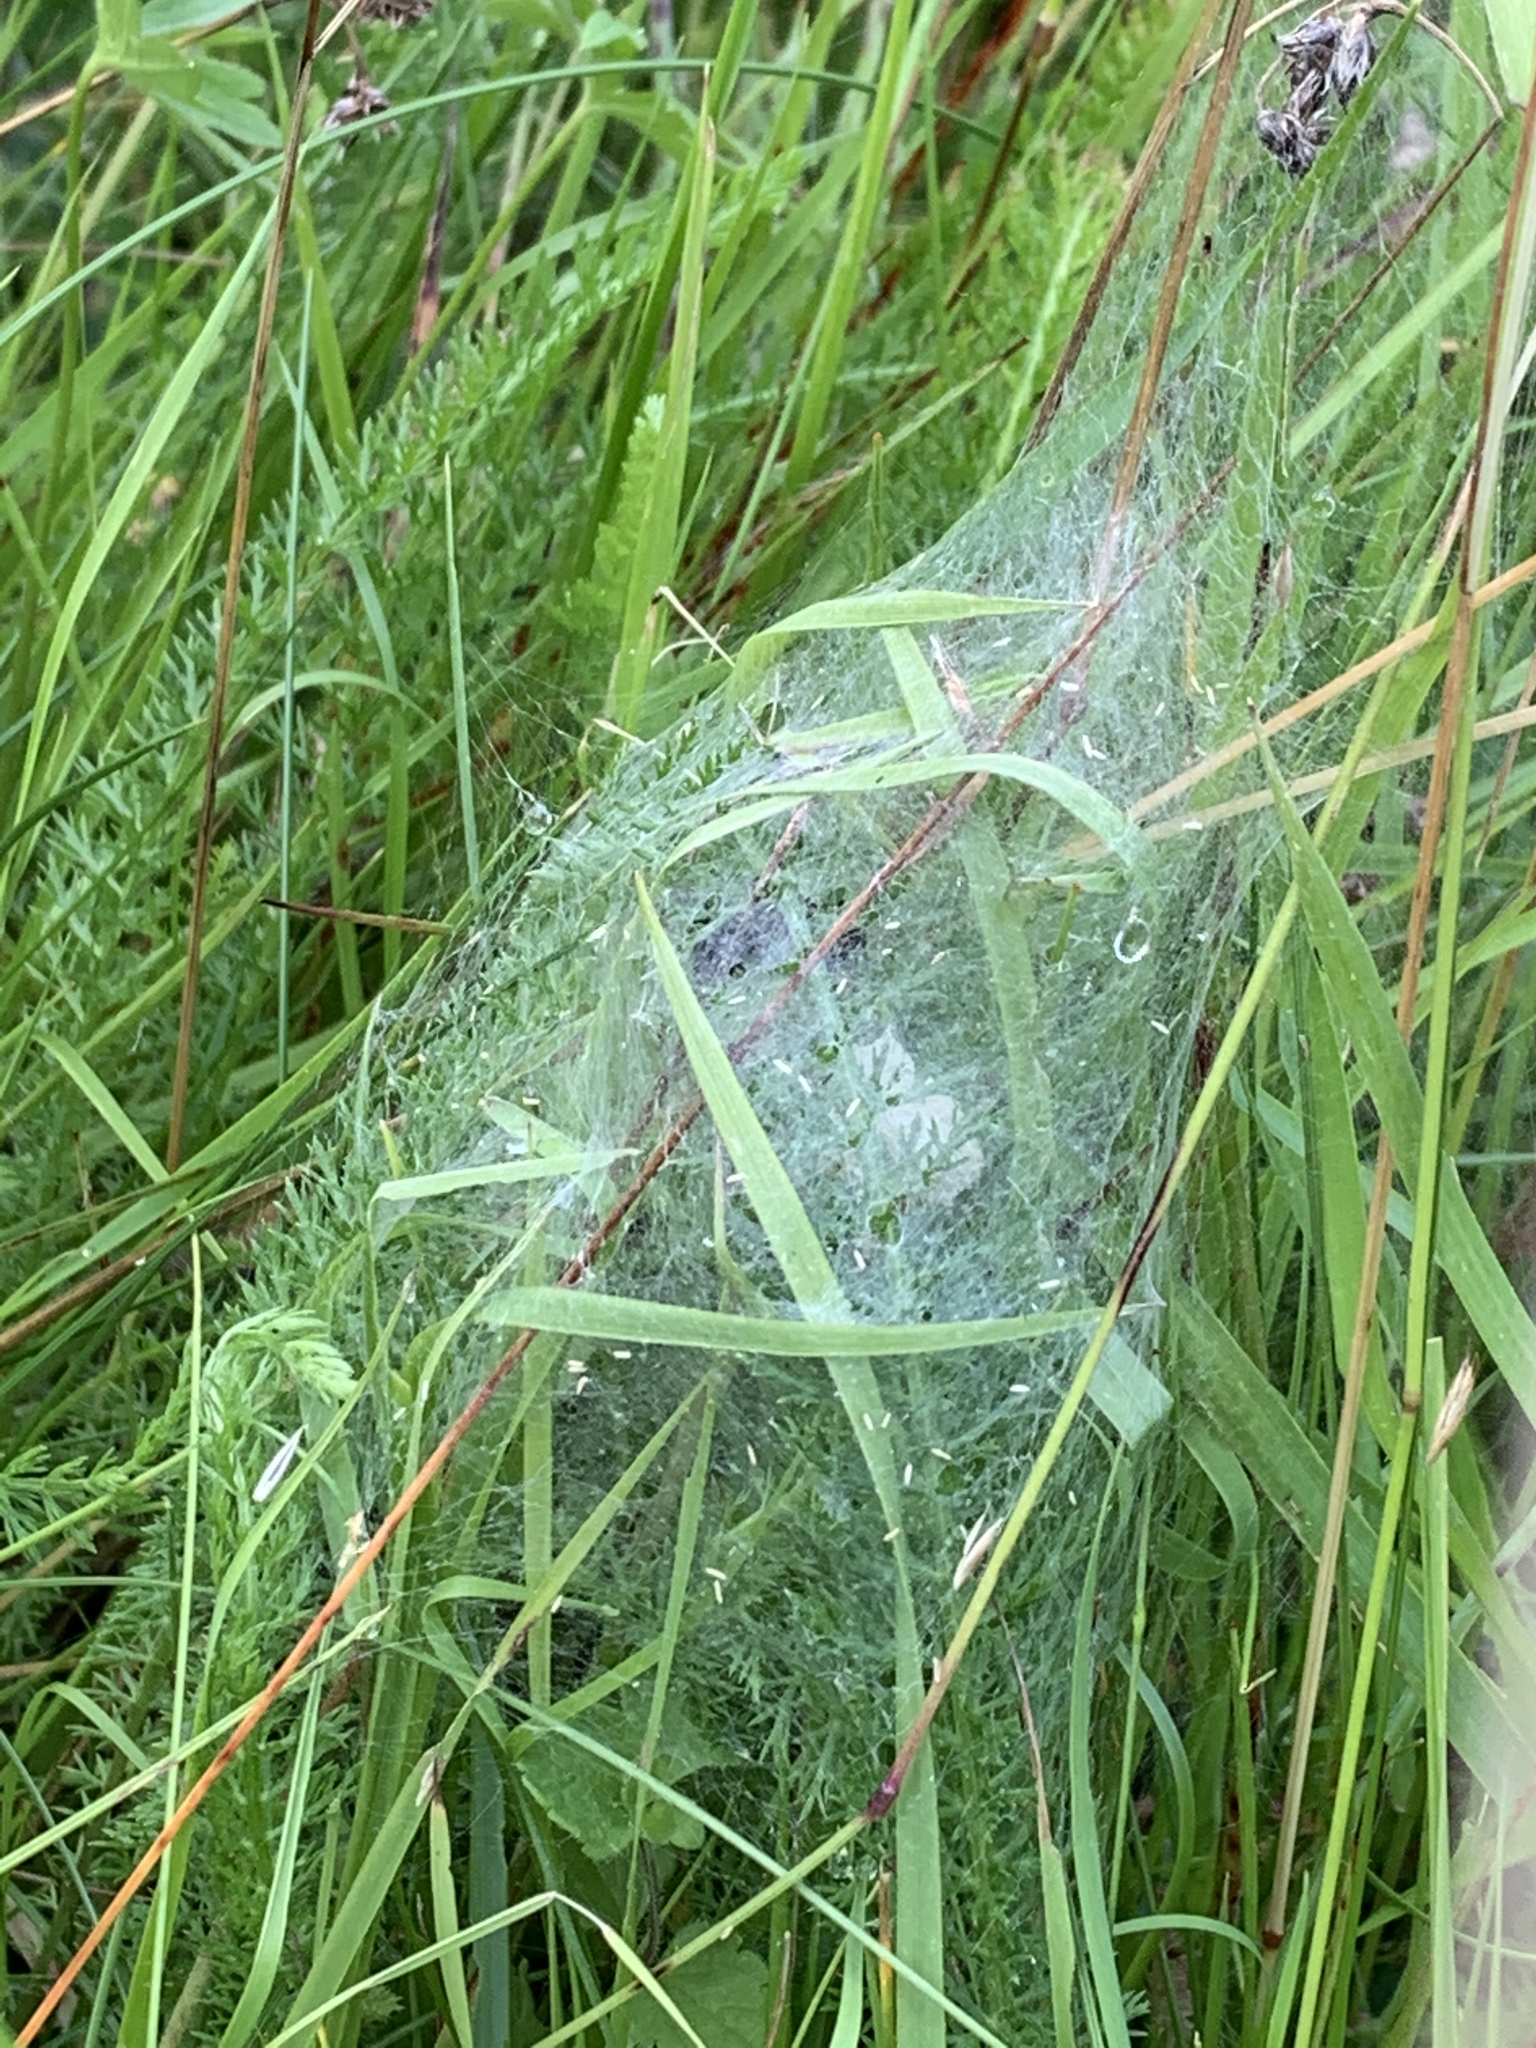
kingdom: Animalia
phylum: Arthropoda
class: Arachnida
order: Araneae
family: Pisauridae
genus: Pisaura
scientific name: Pisaura mirabilis
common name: Tent spider
